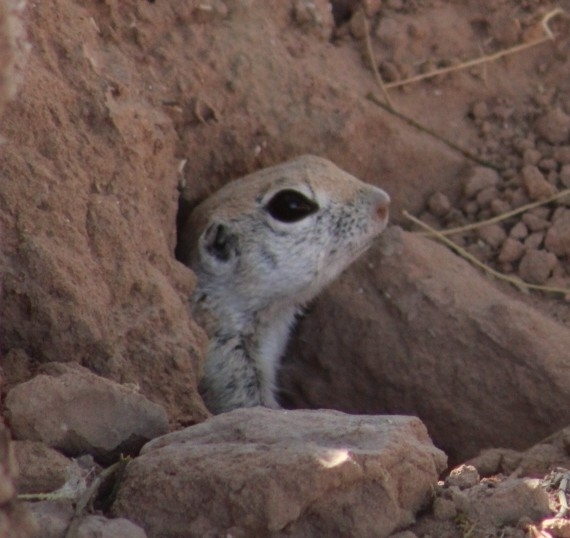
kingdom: Animalia
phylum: Chordata
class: Mammalia
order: Rodentia
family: Sciuridae
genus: Xerospermophilus
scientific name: Xerospermophilus tereticaudus
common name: Round-tailed ground squirrel
